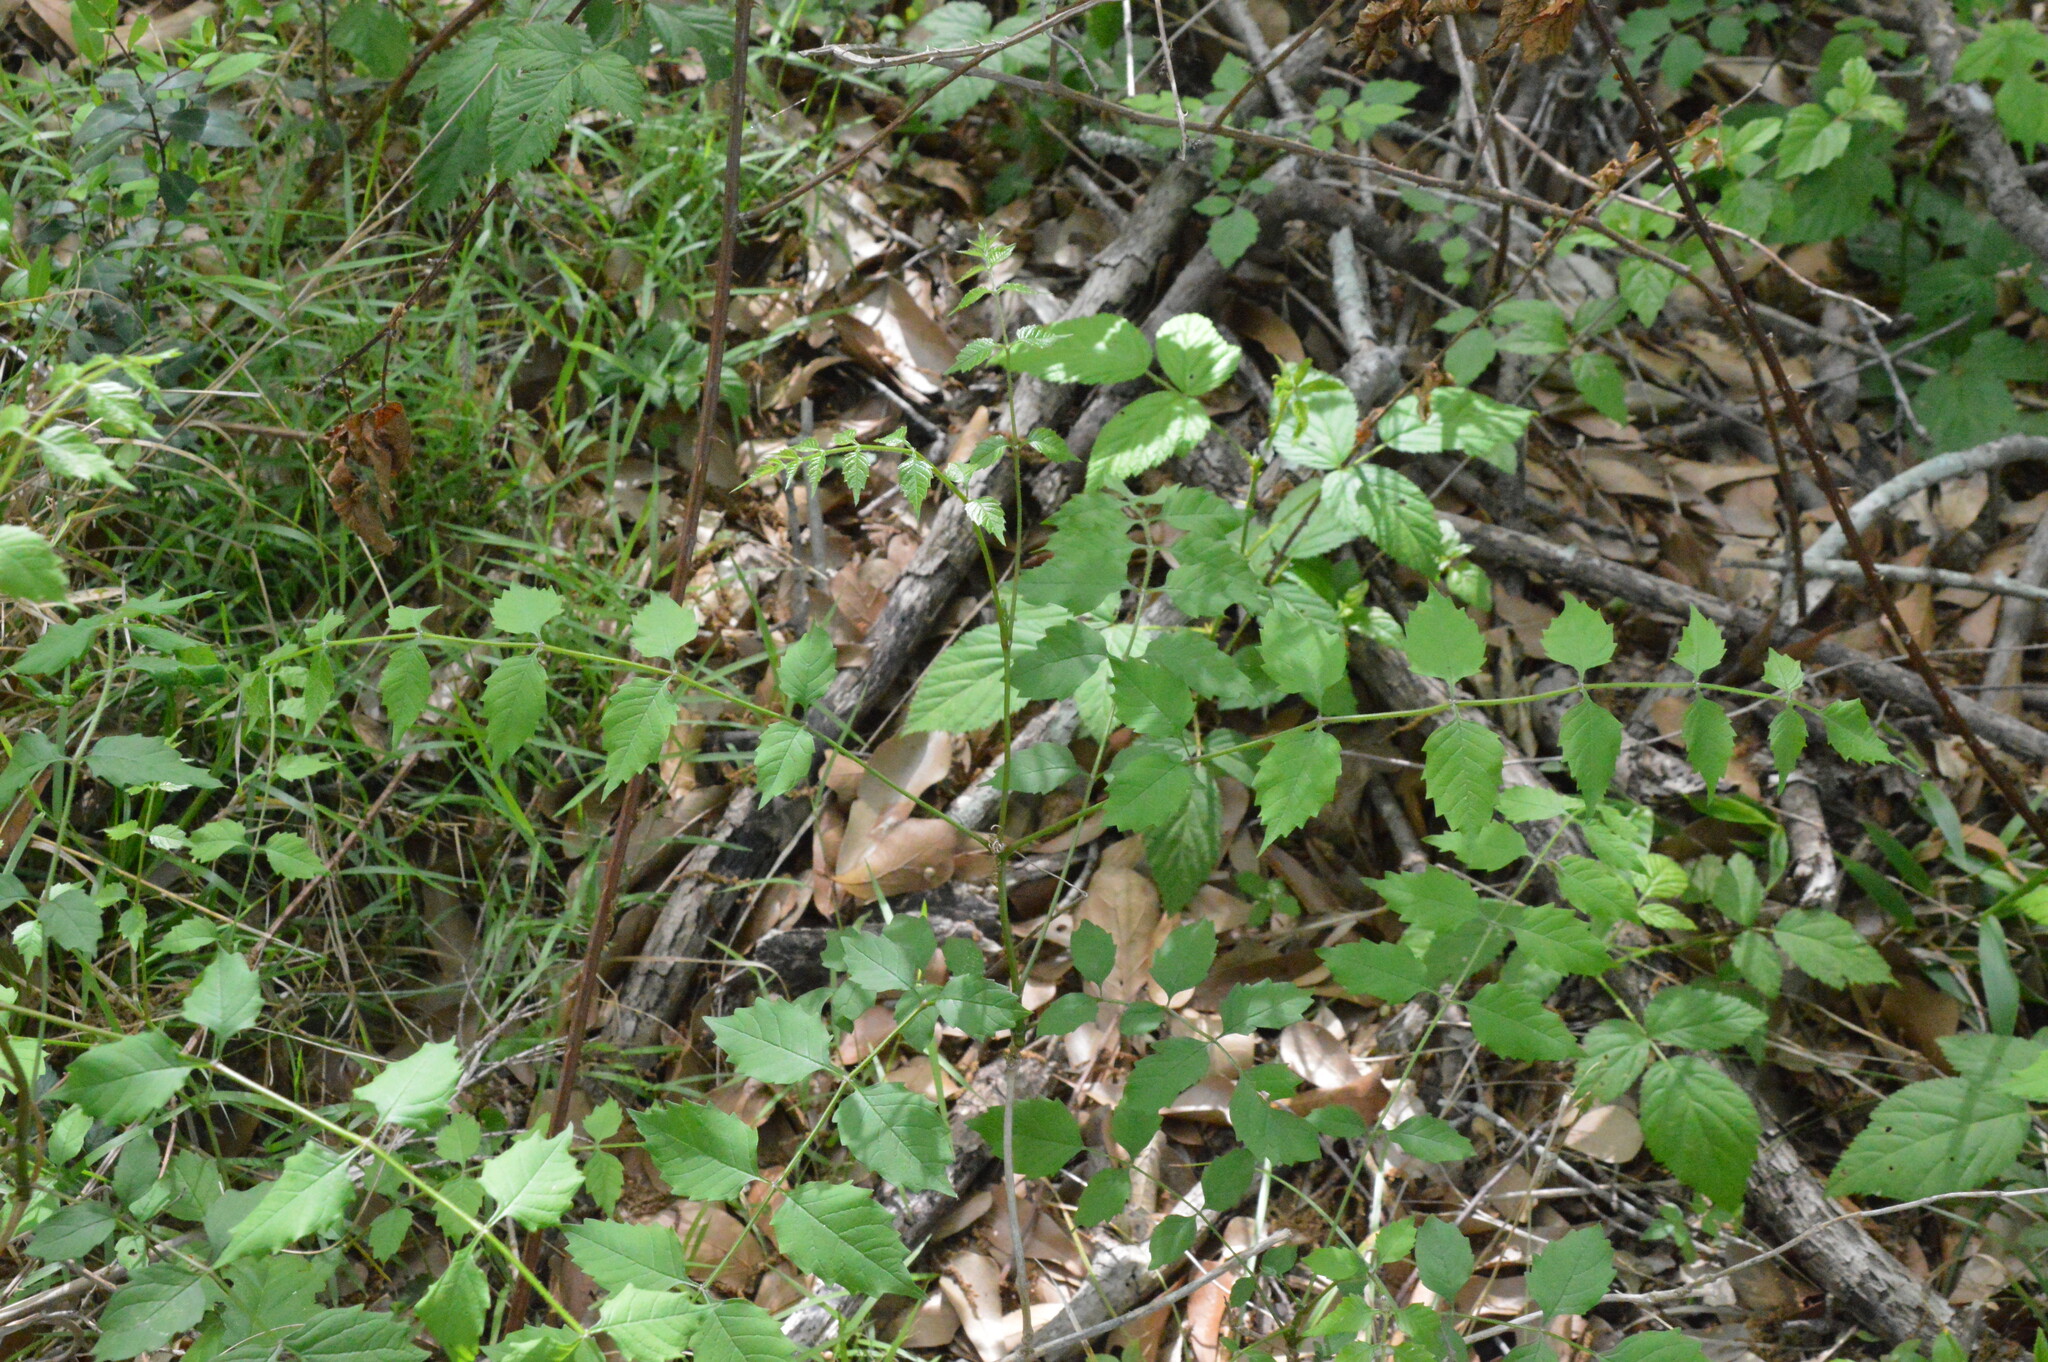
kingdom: Plantae
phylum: Tracheophyta
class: Magnoliopsida
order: Lamiales
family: Bignoniaceae
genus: Campsis
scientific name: Campsis radicans
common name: Trumpet-creeper
